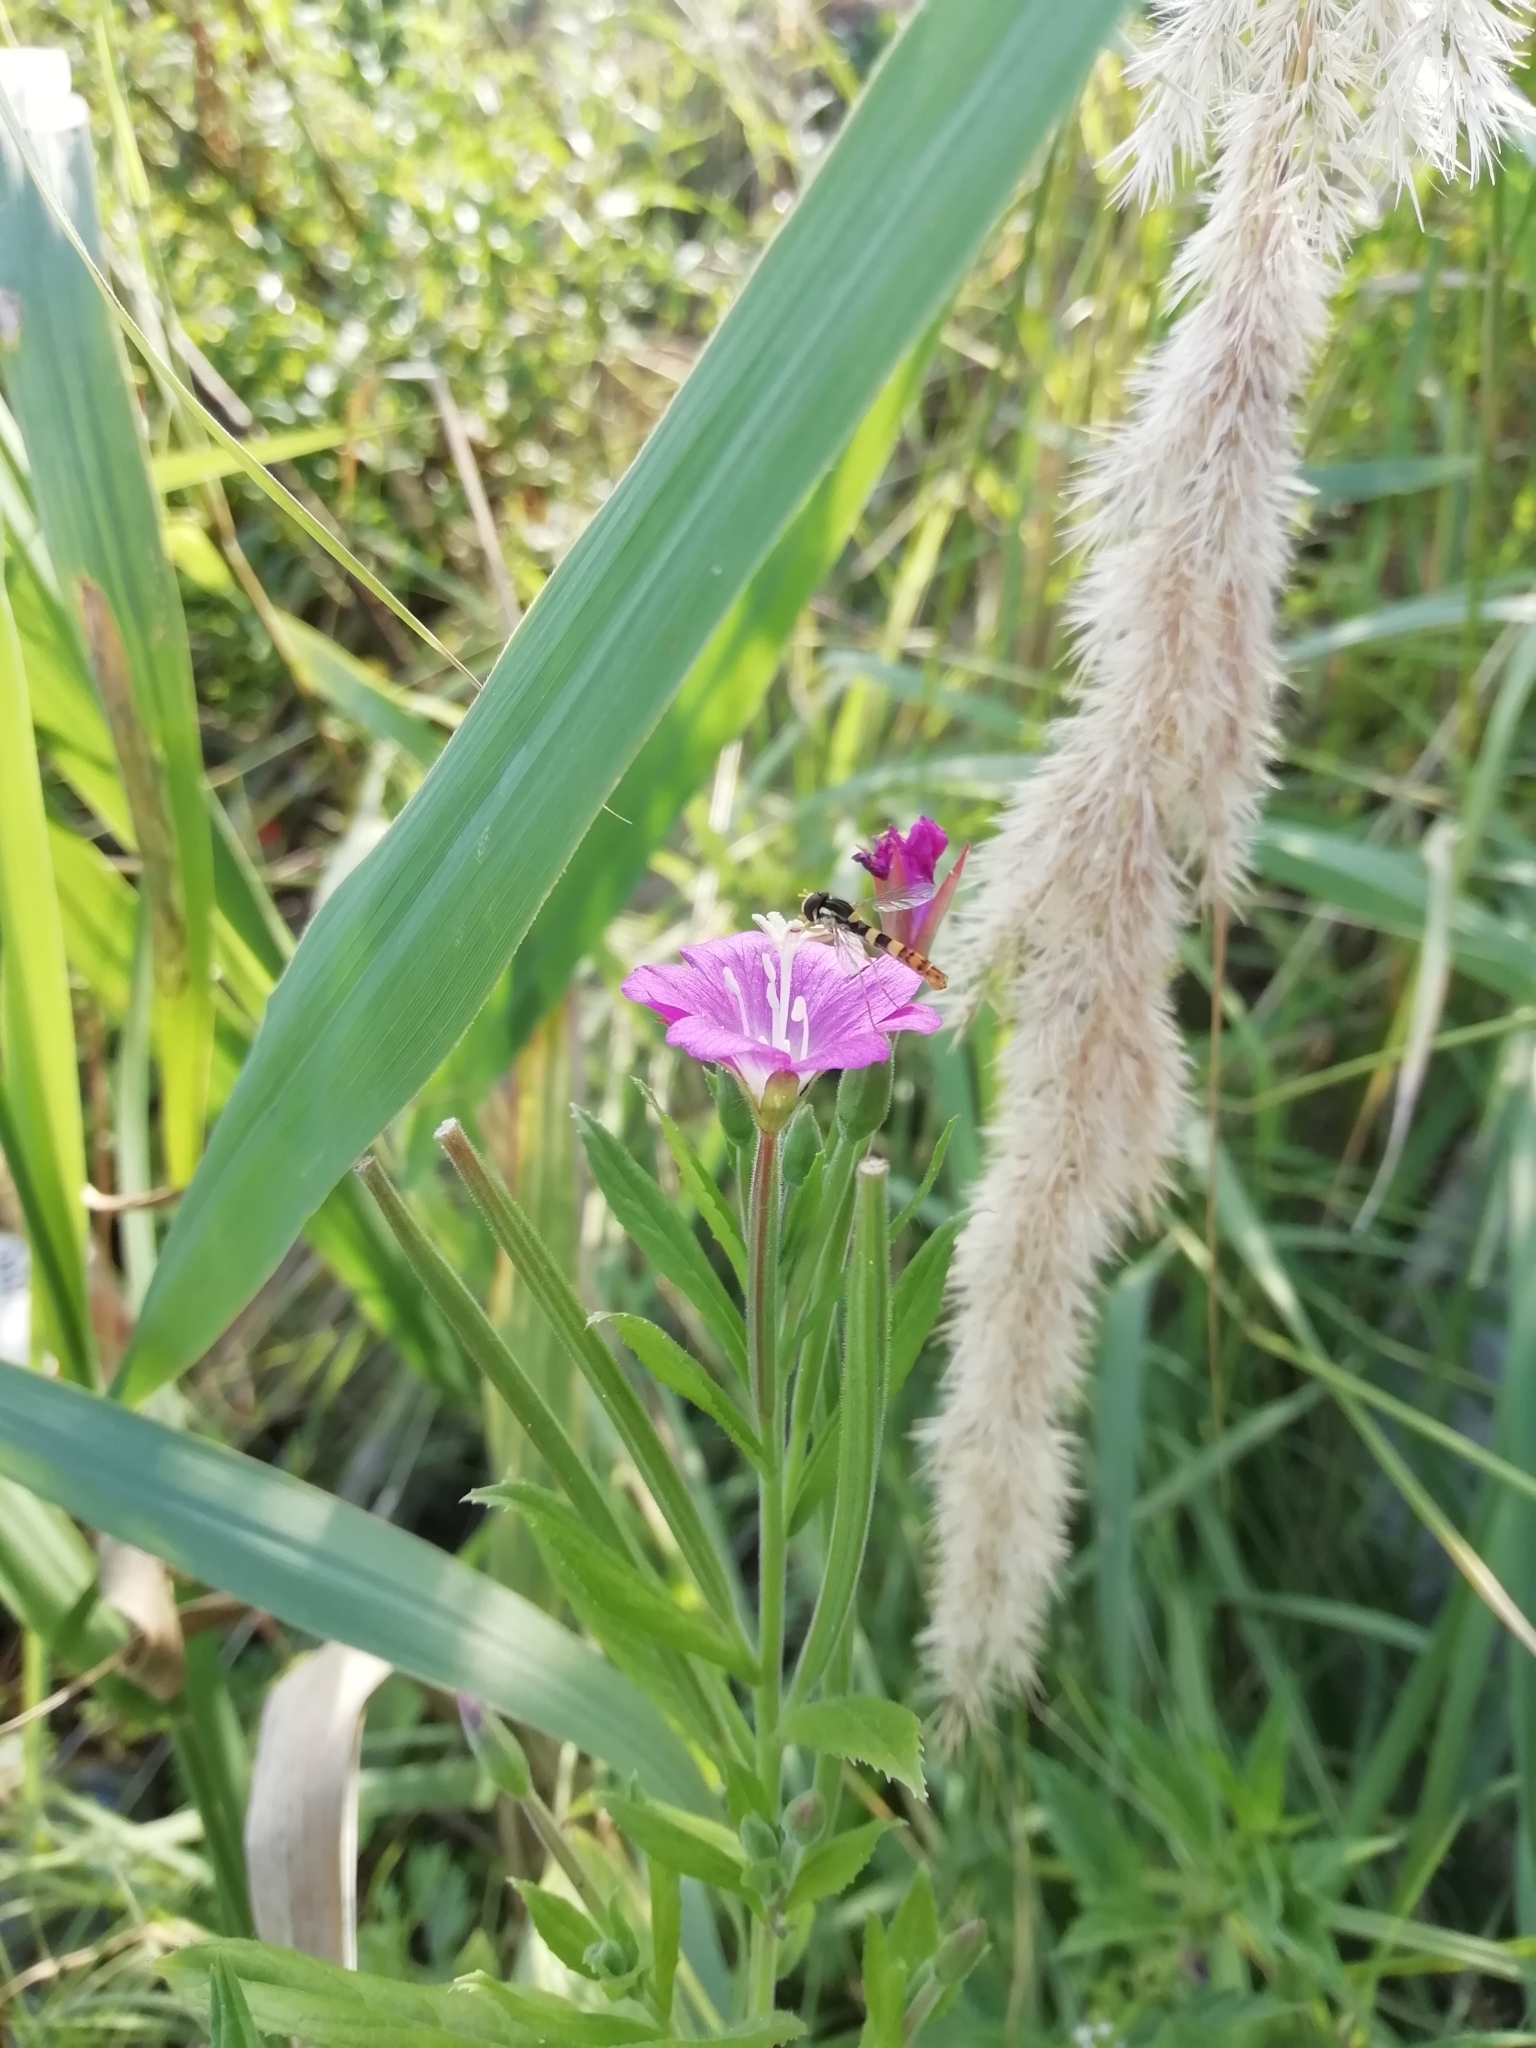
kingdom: Plantae
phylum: Tracheophyta
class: Magnoliopsida
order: Myrtales
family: Onagraceae
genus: Epilobium
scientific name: Epilobium hirsutum
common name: Great willowherb
